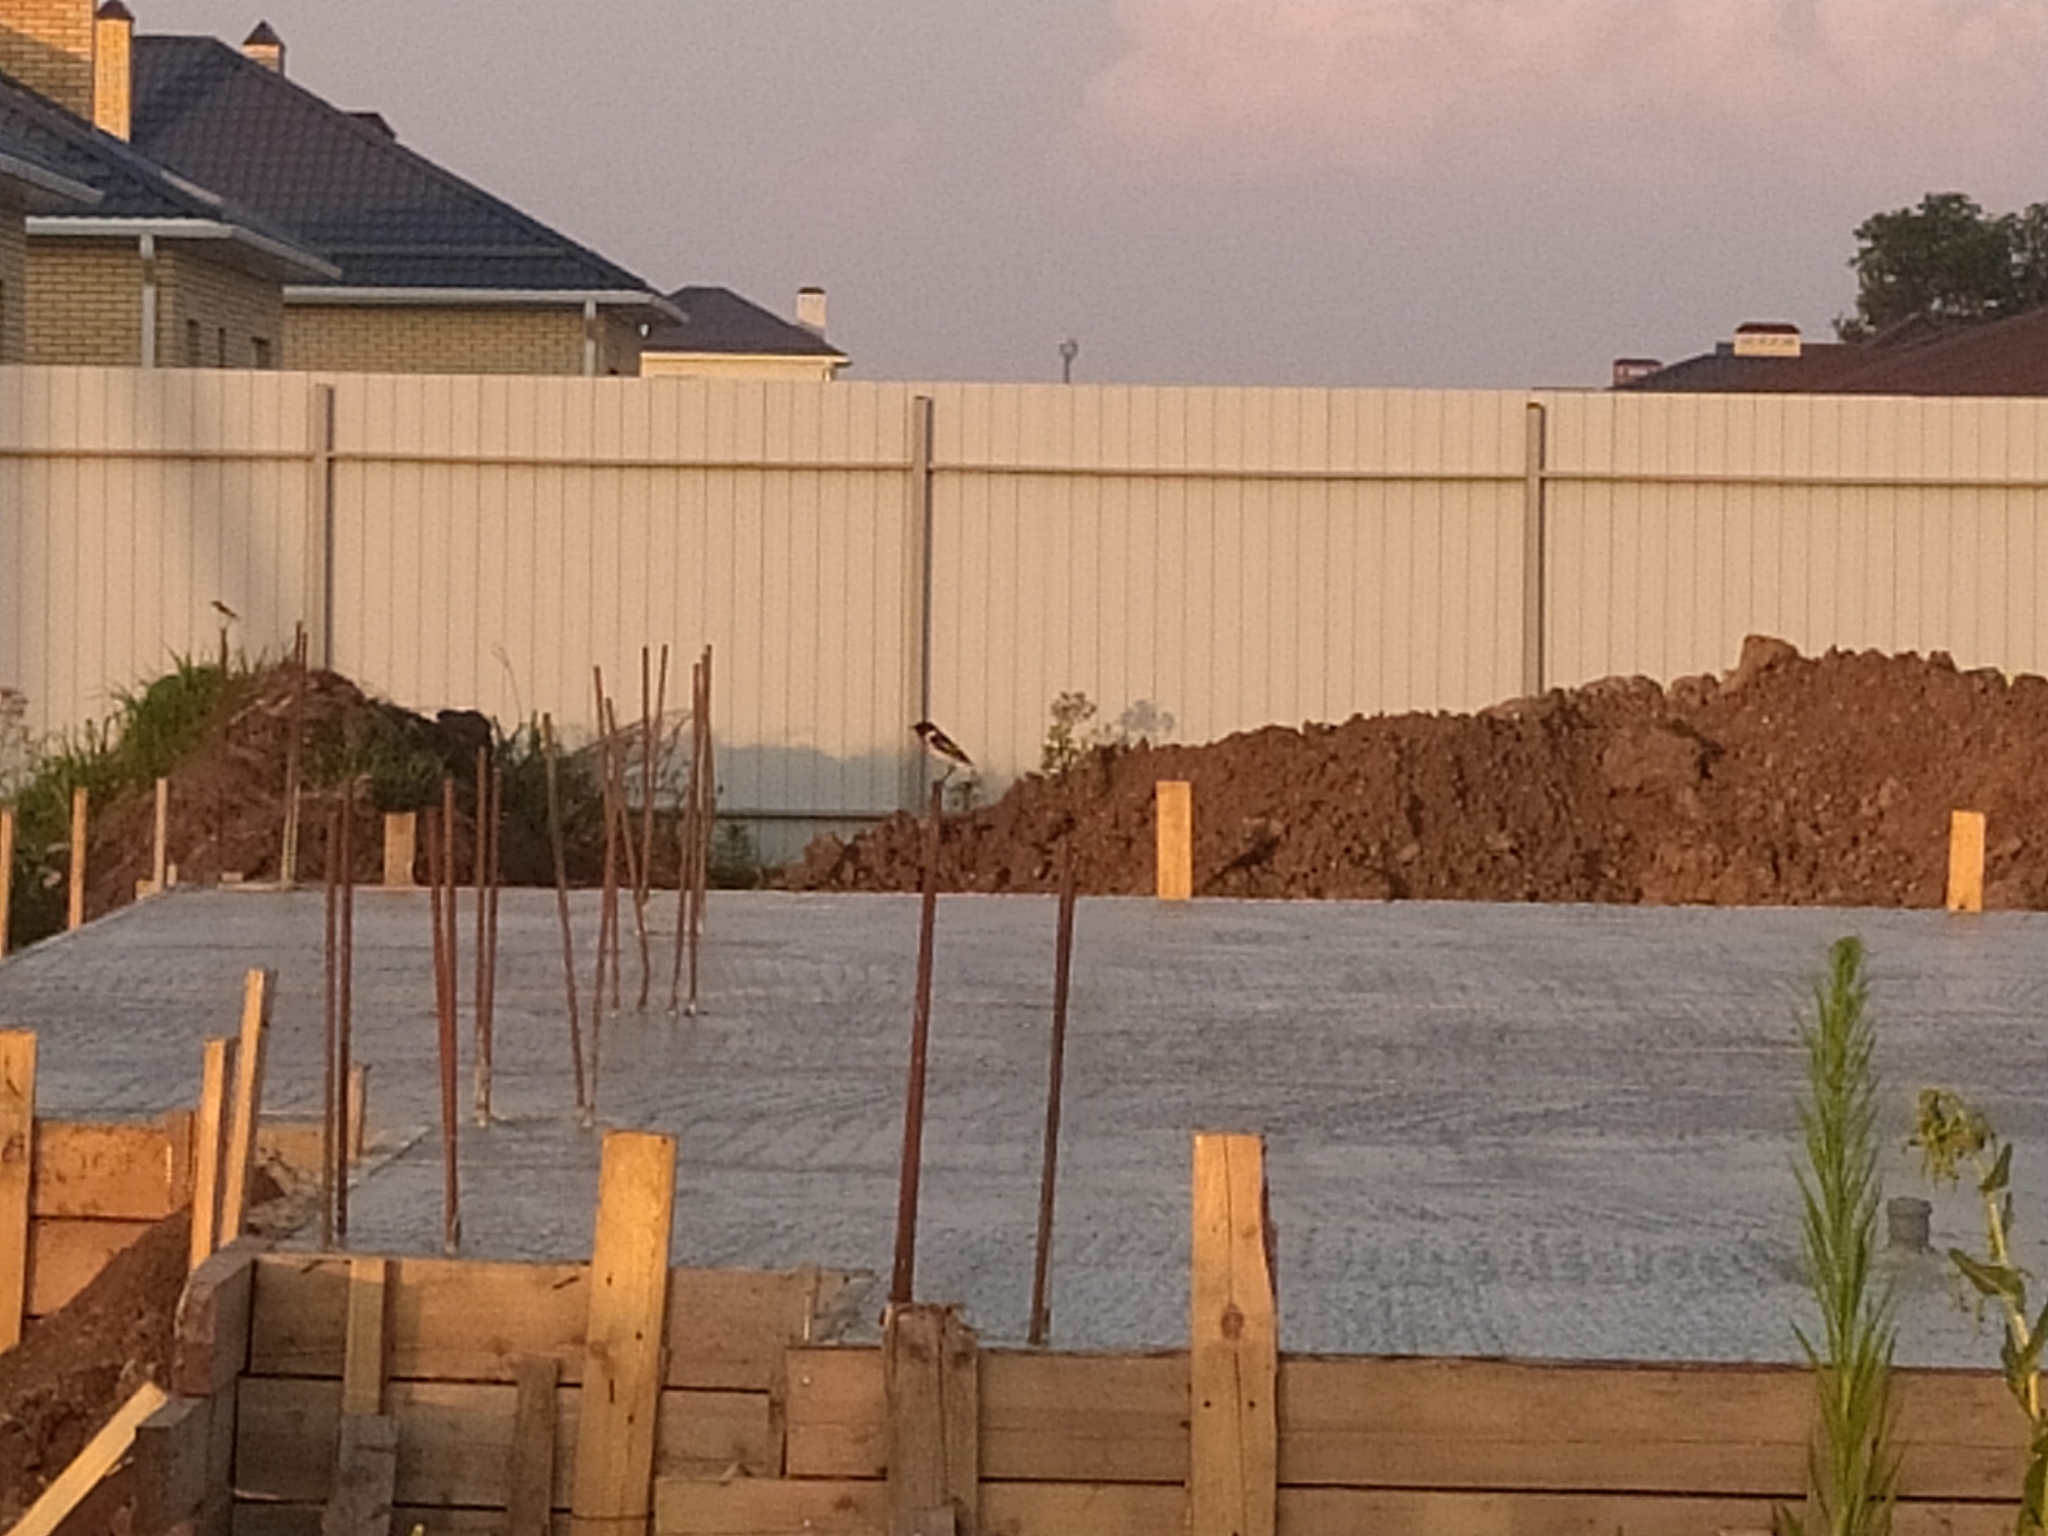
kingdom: Animalia
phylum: Chordata
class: Aves
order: Passeriformes
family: Muscicapidae
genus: Saxicola
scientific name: Saxicola maurus
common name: Siberian stonechat
